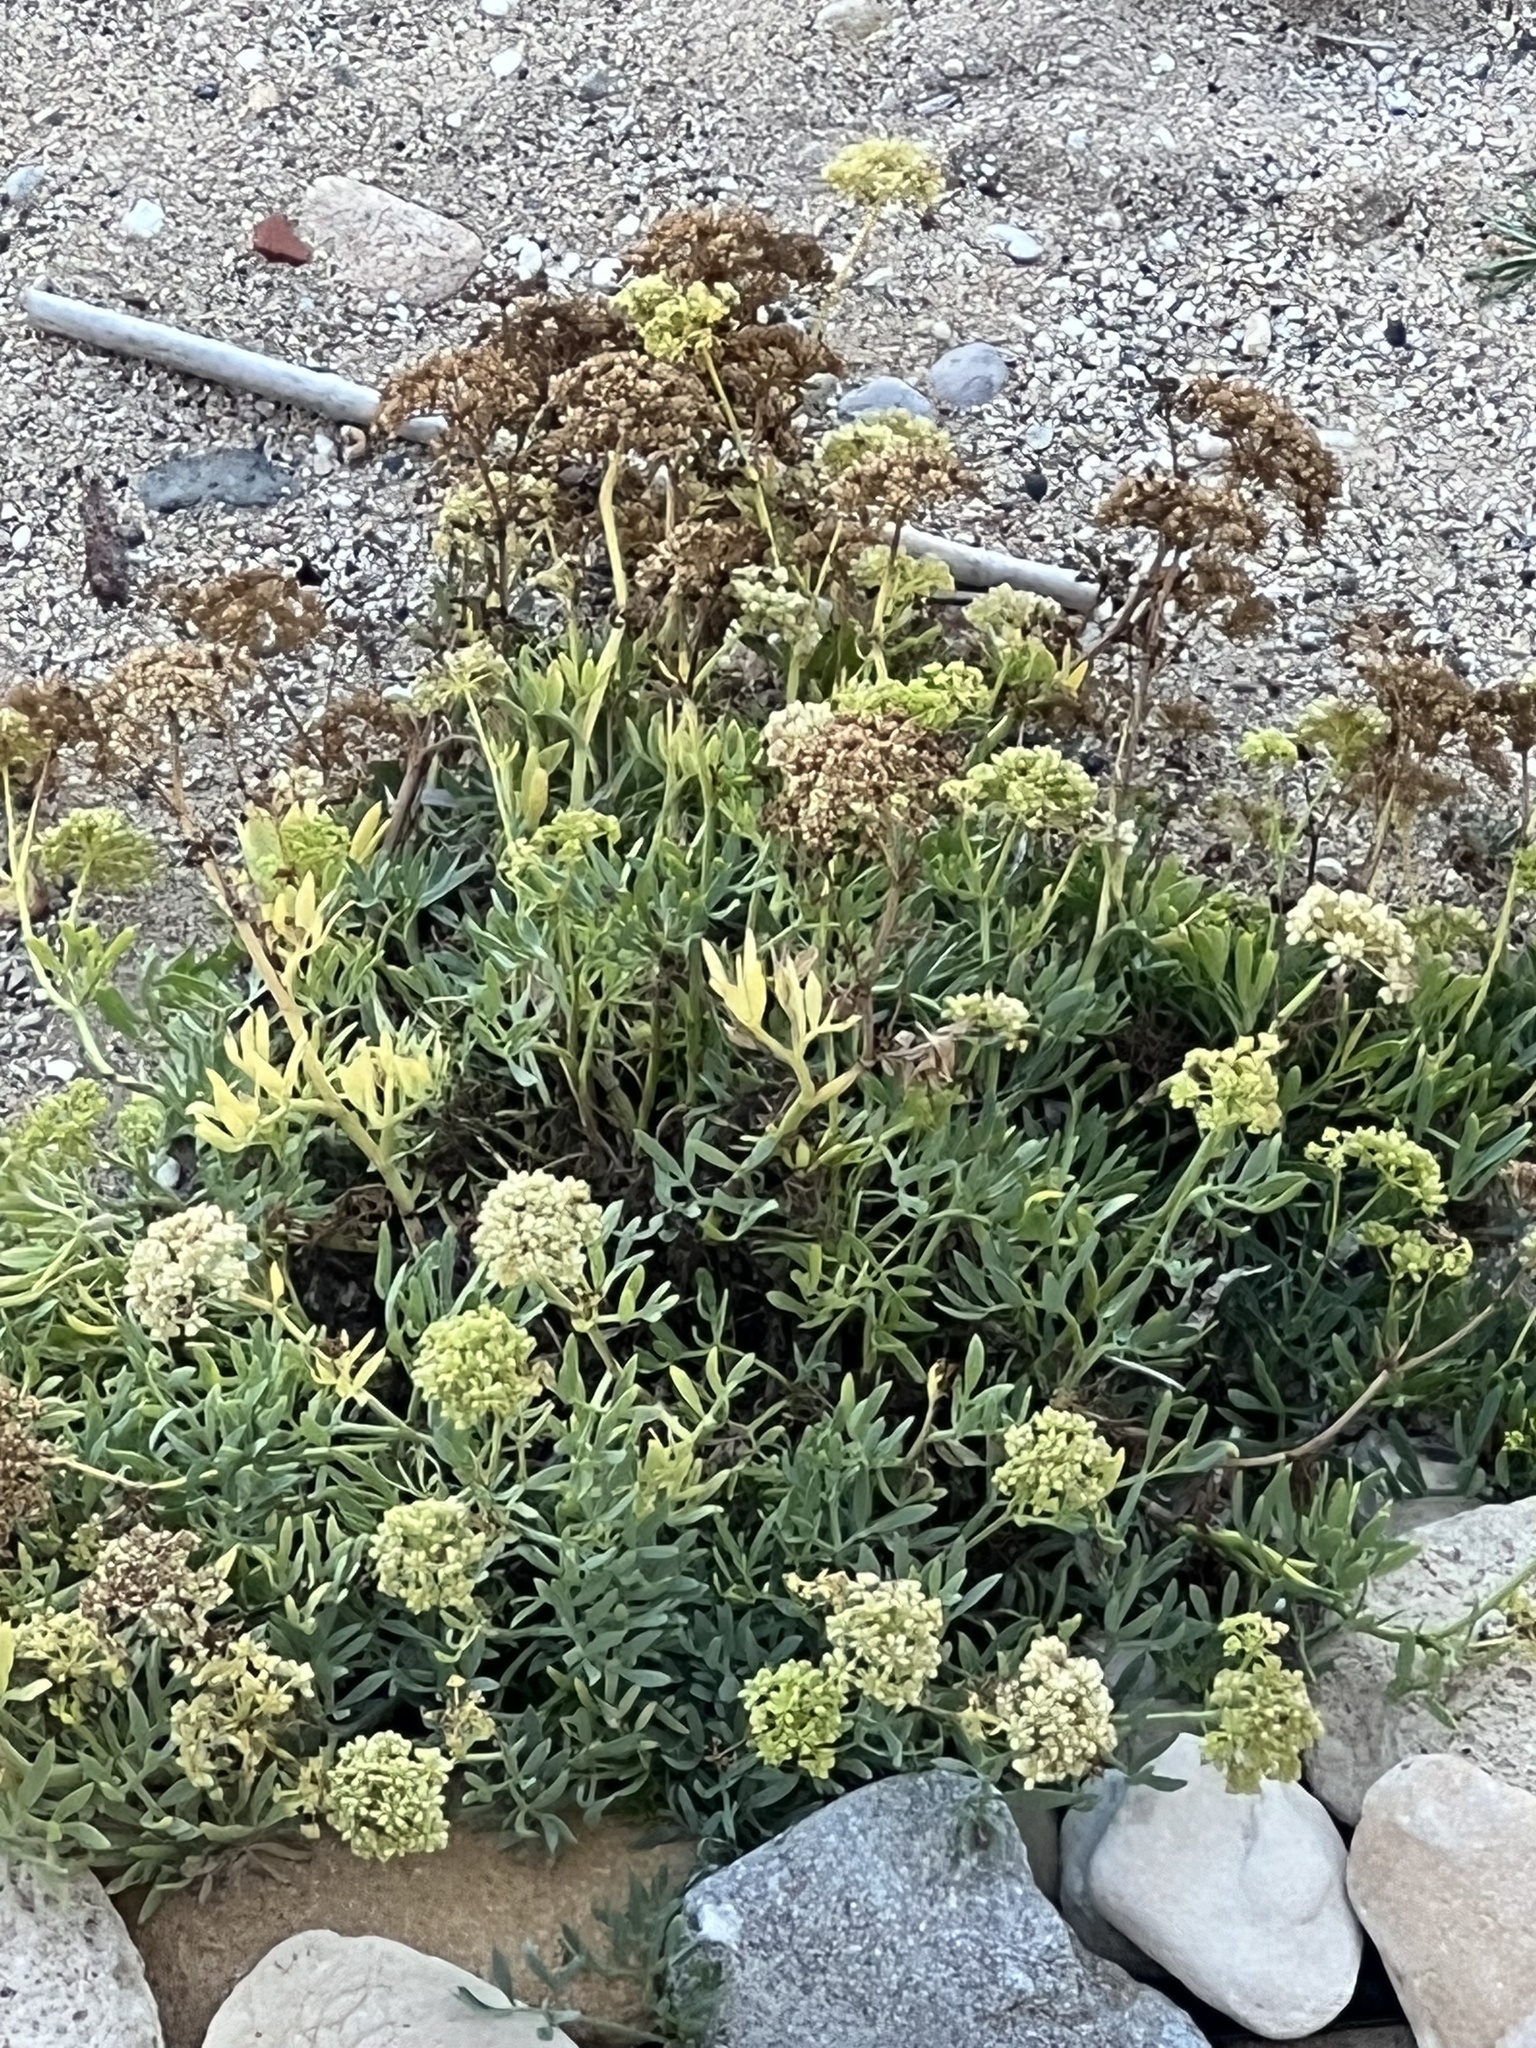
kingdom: Plantae
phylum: Tracheophyta
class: Magnoliopsida
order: Apiales
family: Apiaceae
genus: Crithmum
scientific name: Crithmum maritimum
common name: Rock samphire
